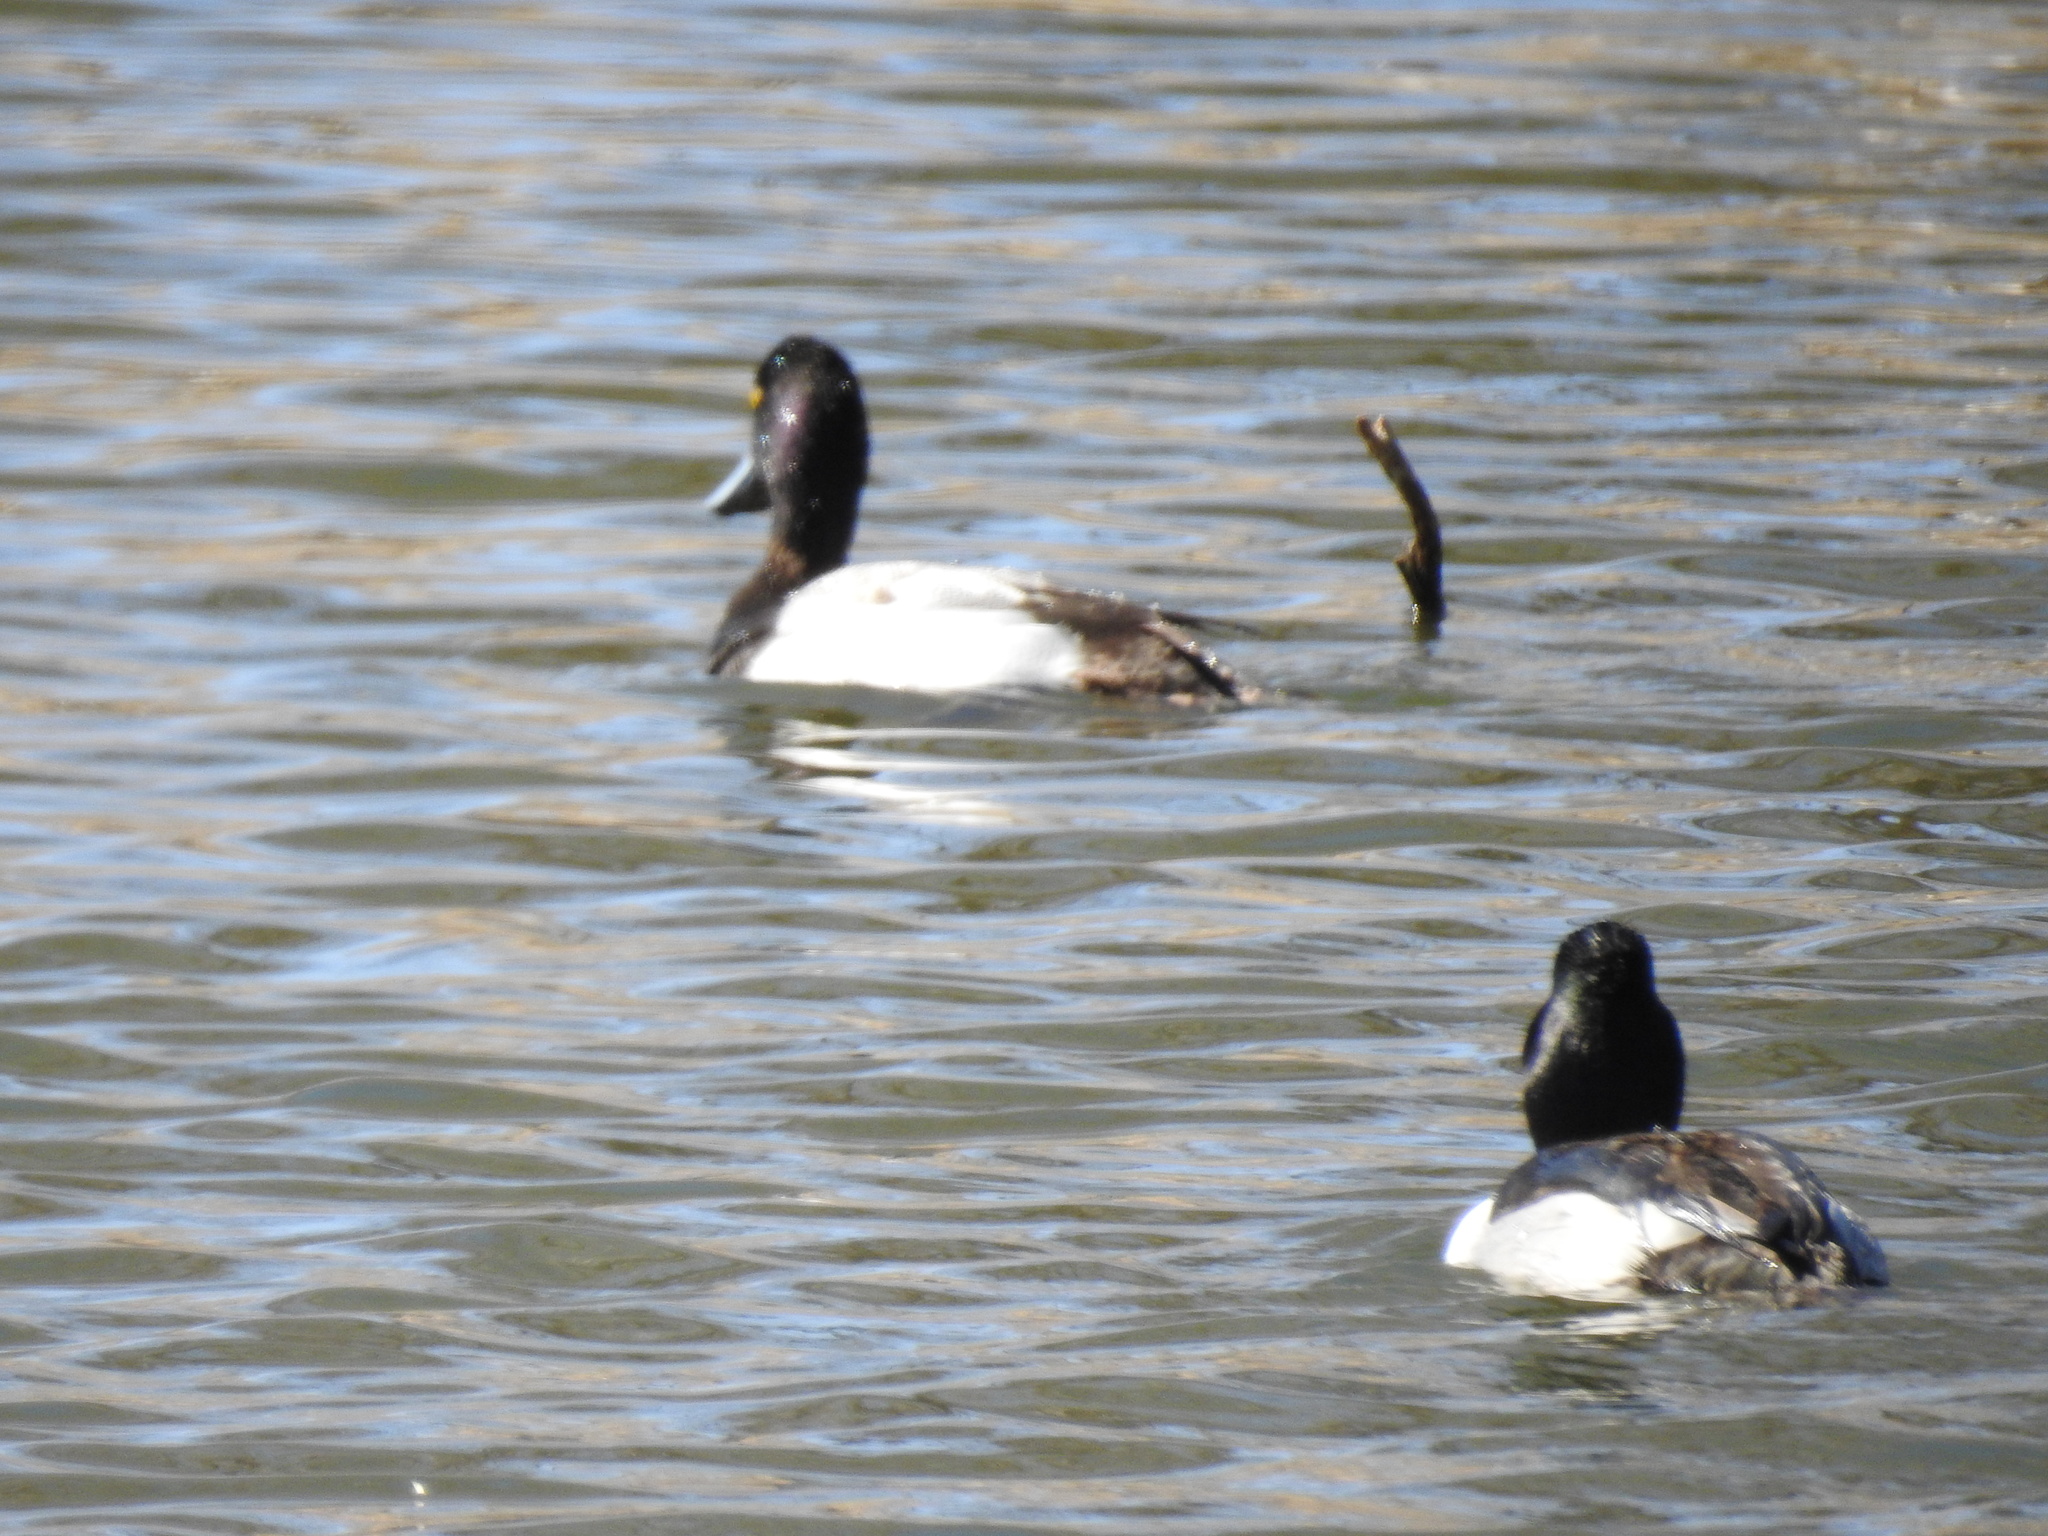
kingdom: Animalia
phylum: Chordata
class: Aves
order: Anseriformes
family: Anatidae
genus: Aythya
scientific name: Aythya collaris
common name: Ring-necked duck
